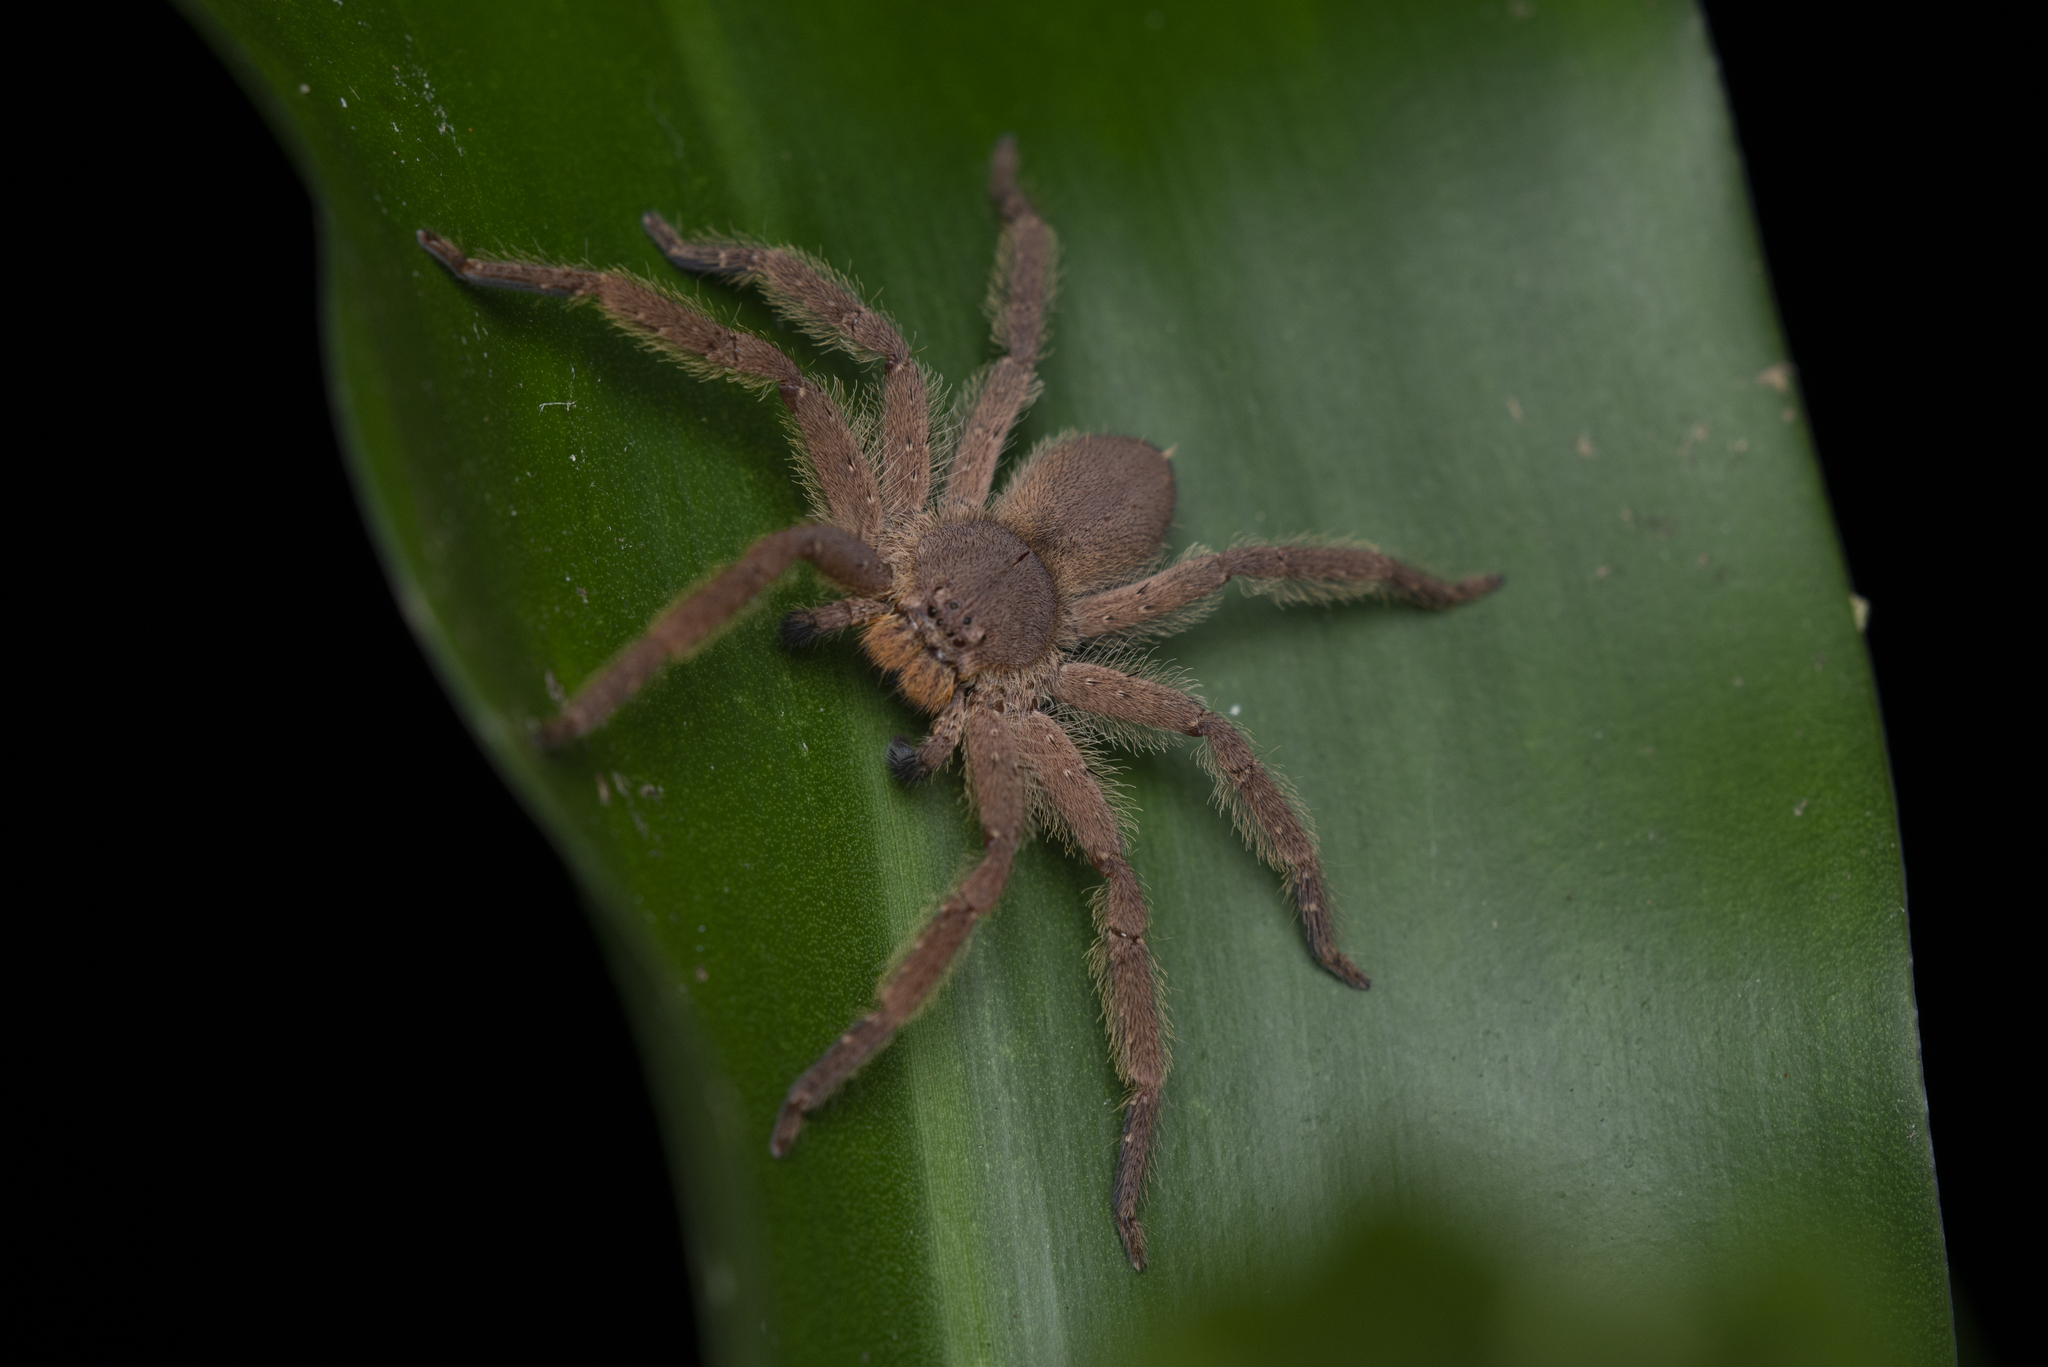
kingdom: Animalia
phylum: Arthropoda
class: Arachnida
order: Araneae
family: Sparassidae
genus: Heteropoda
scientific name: Heteropoda pingtungensis
